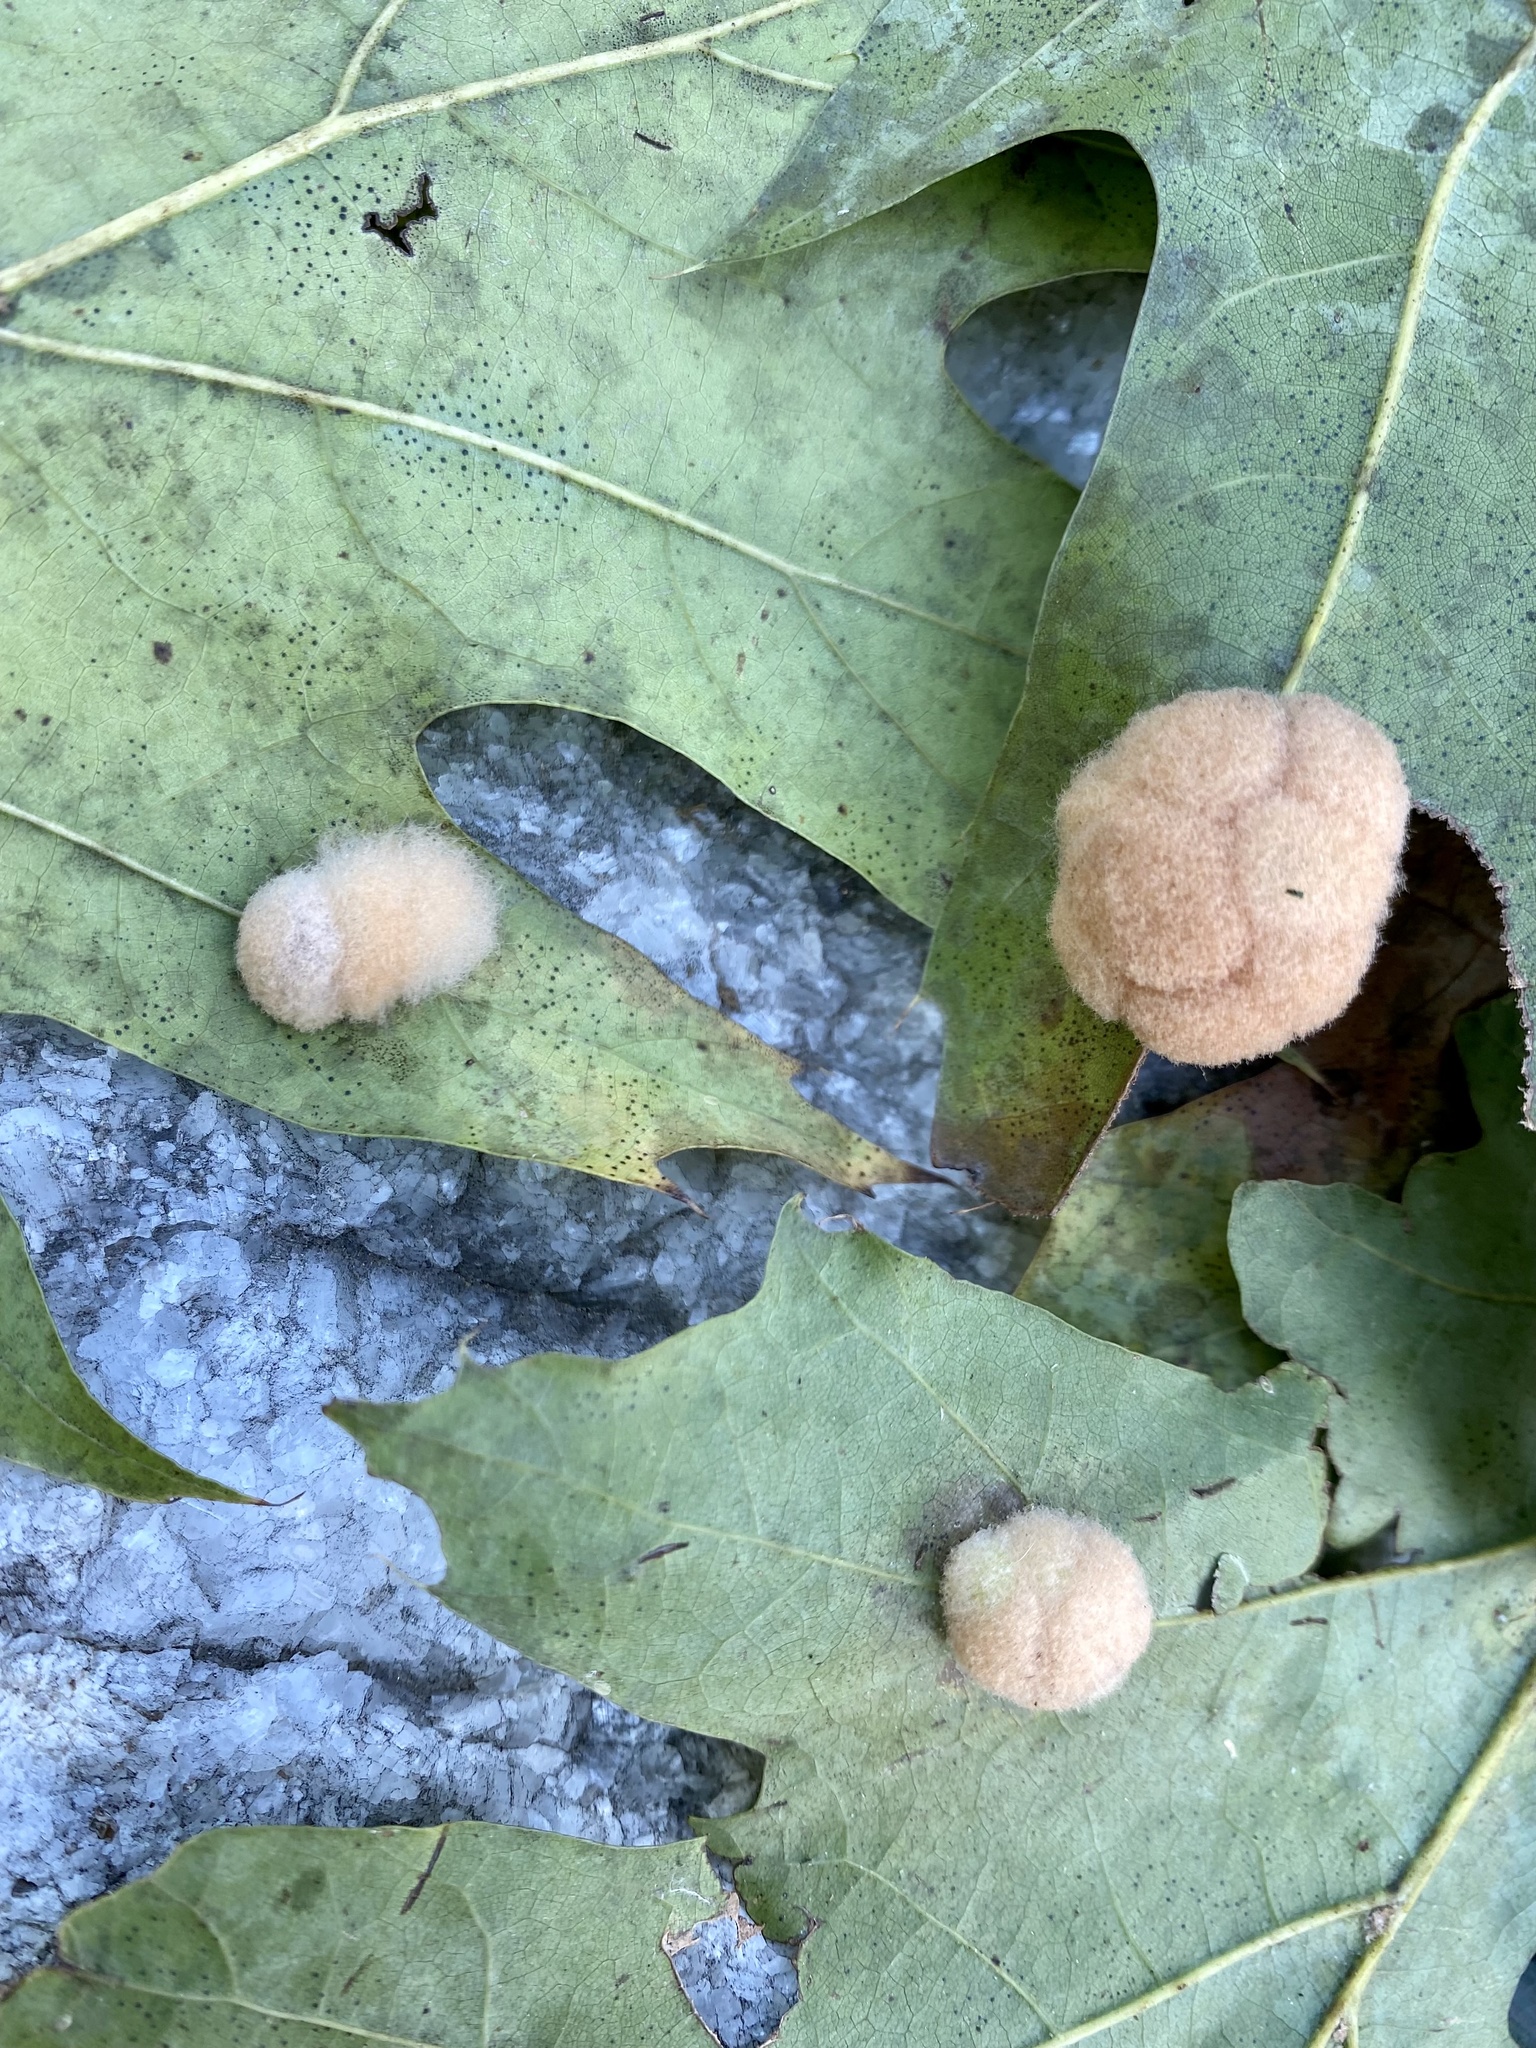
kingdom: Animalia
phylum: Arthropoda
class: Insecta
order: Hymenoptera
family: Cynipidae
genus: Callirhytis
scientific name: Callirhytis
